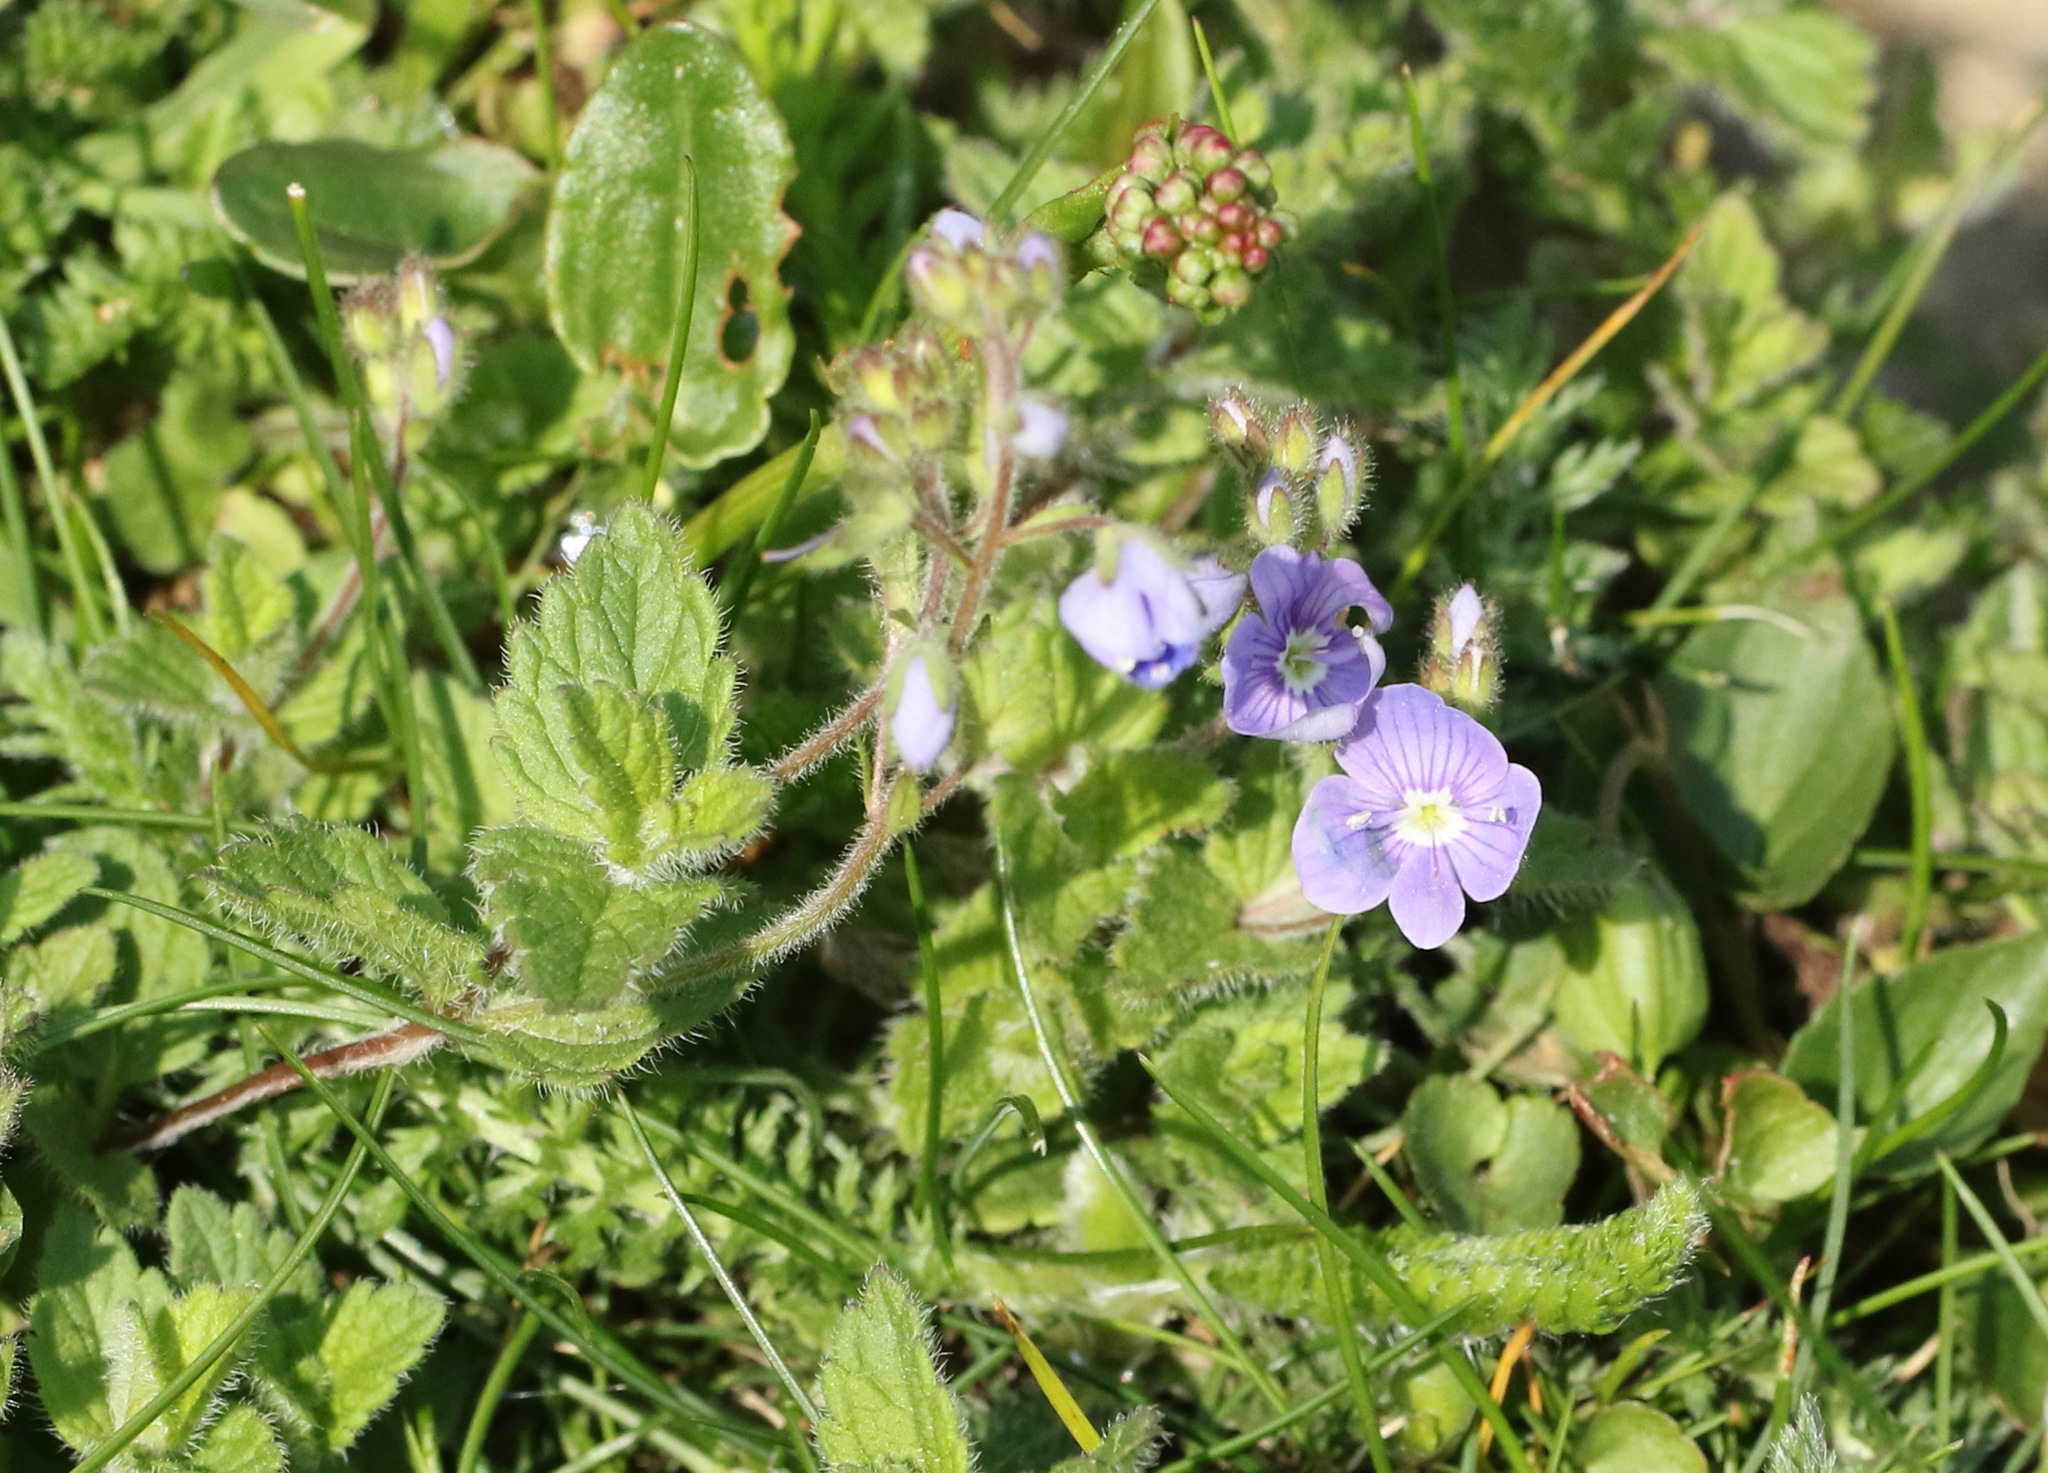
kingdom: Plantae
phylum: Tracheophyta
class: Magnoliopsida
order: Lamiales
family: Plantaginaceae
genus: Veronica
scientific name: Veronica chamaedrys
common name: Germander speedwell
